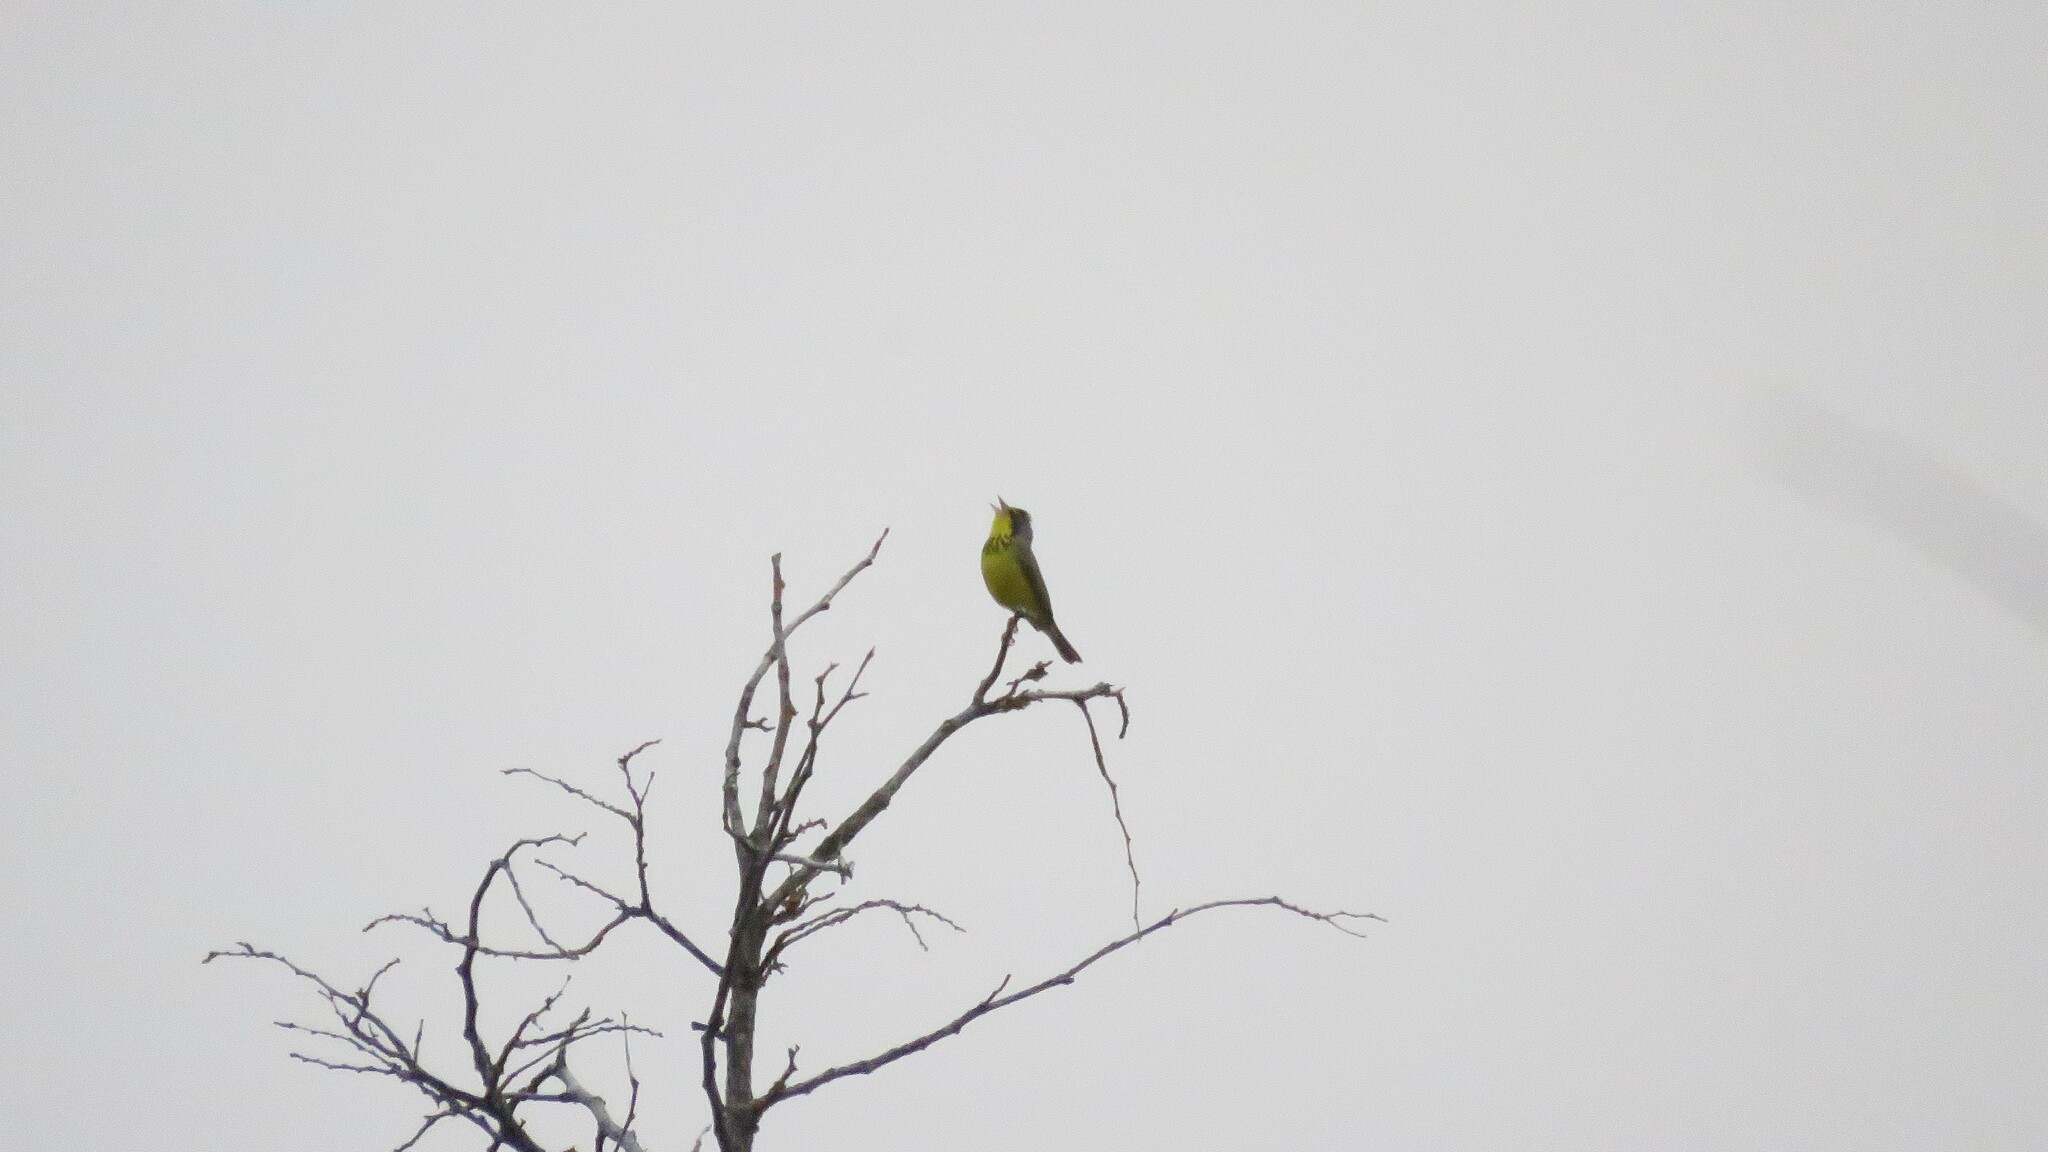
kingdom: Animalia
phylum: Chordata
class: Aves
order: Passeriformes
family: Parulidae
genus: Cardellina
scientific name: Cardellina canadensis
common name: Canada warbler
